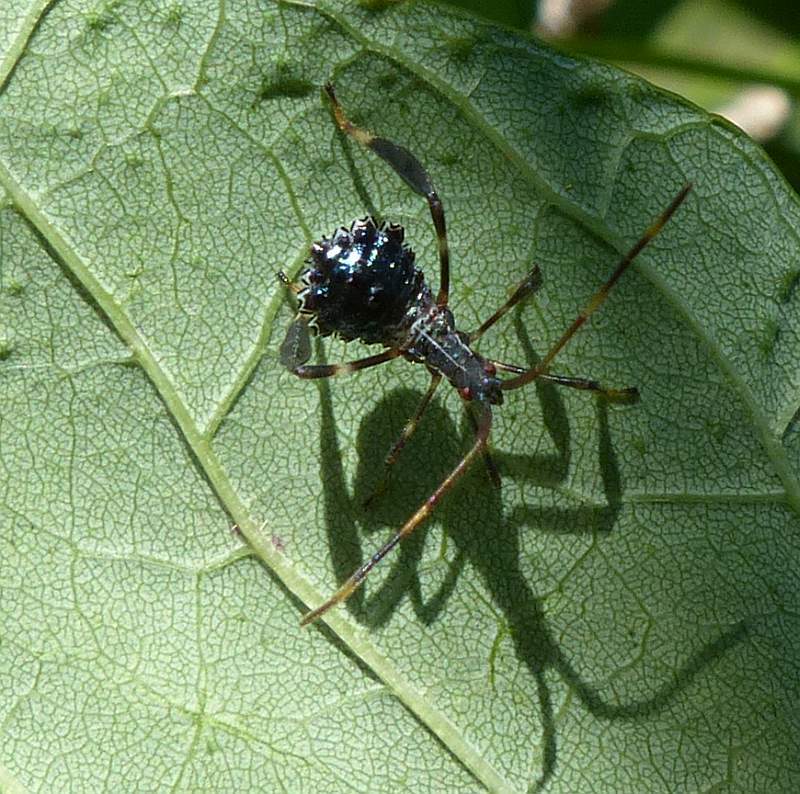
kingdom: Animalia
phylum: Arthropoda
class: Insecta
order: Hemiptera
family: Coreidae
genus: Acanthocephala
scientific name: Acanthocephala terminalis
